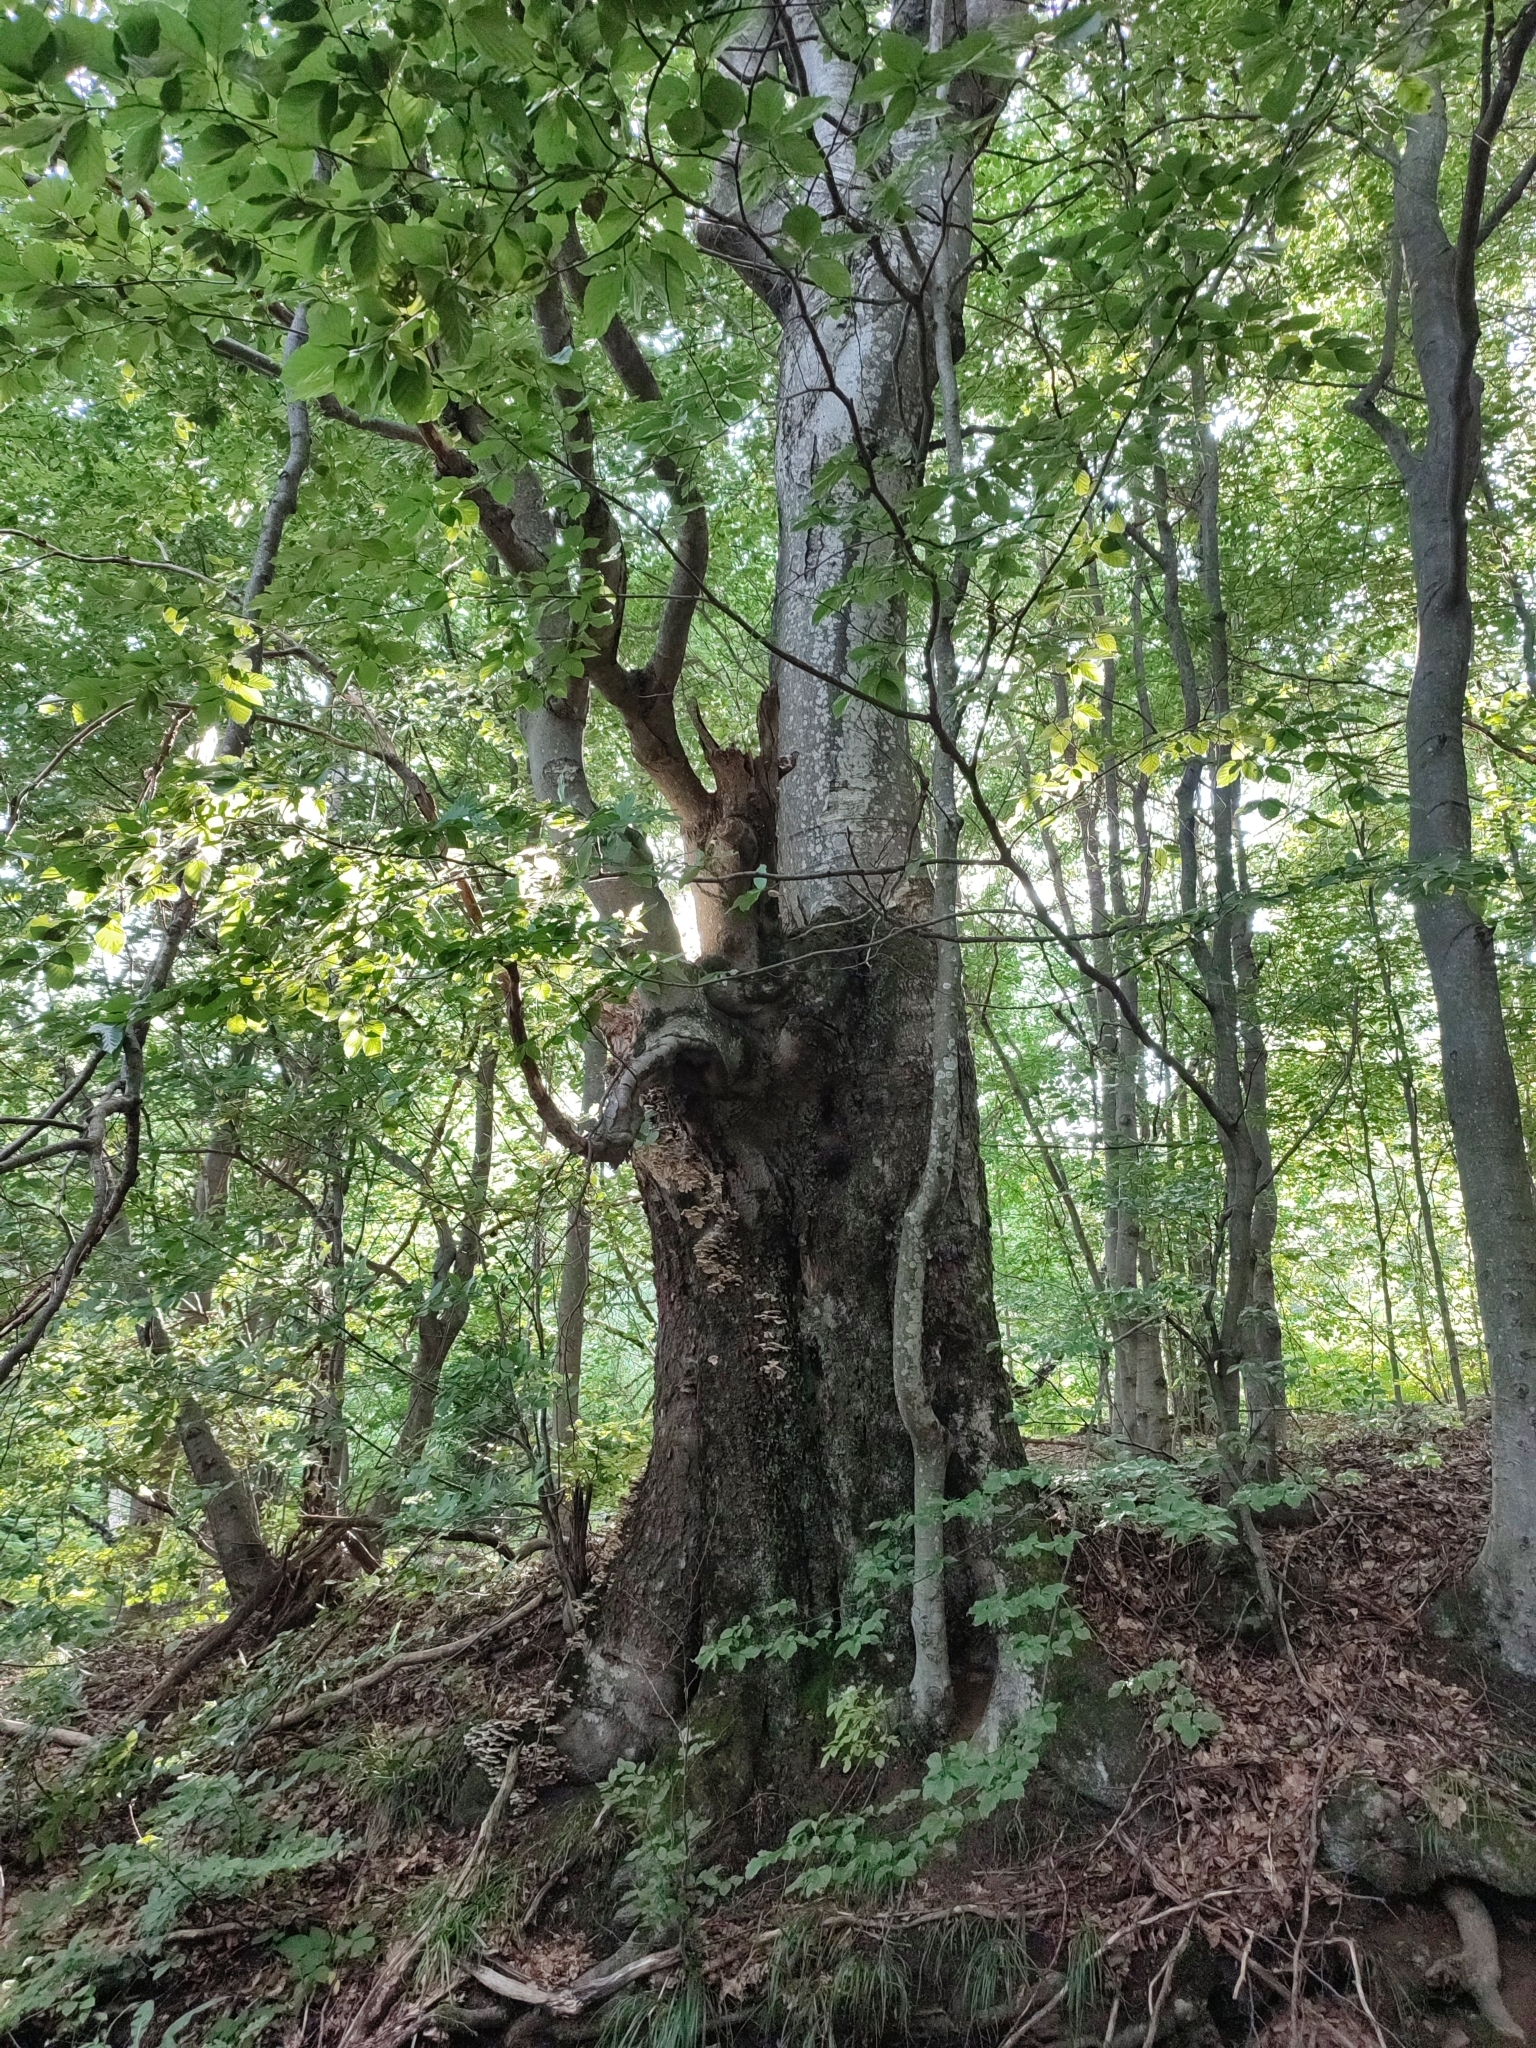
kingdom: Plantae
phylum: Tracheophyta
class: Magnoliopsida
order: Fagales
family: Fagaceae
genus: Fagus
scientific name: Fagus sylvatica
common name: Beech
